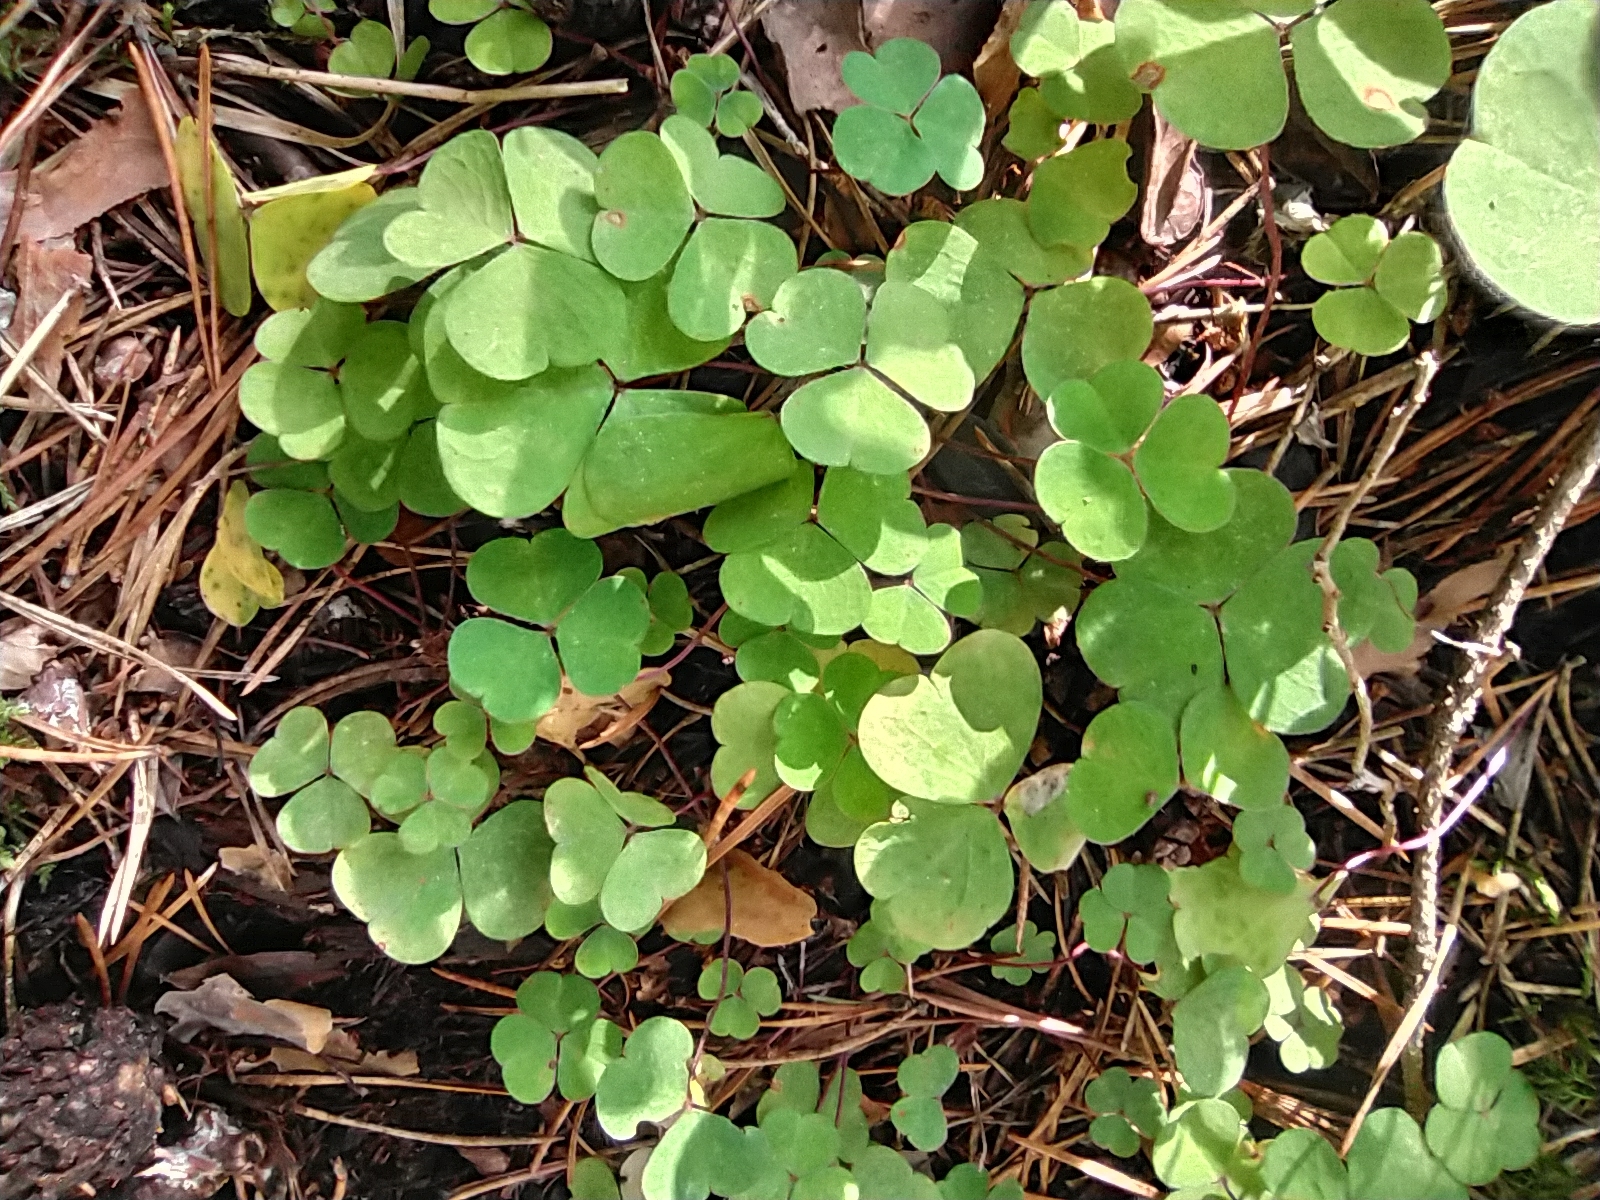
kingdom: Plantae
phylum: Tracheophyta
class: Magnoliopsida
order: Oxalidales
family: Oxalidaceae
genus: Oxalis
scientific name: Oxalis acetosella
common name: Wood-sorrel
